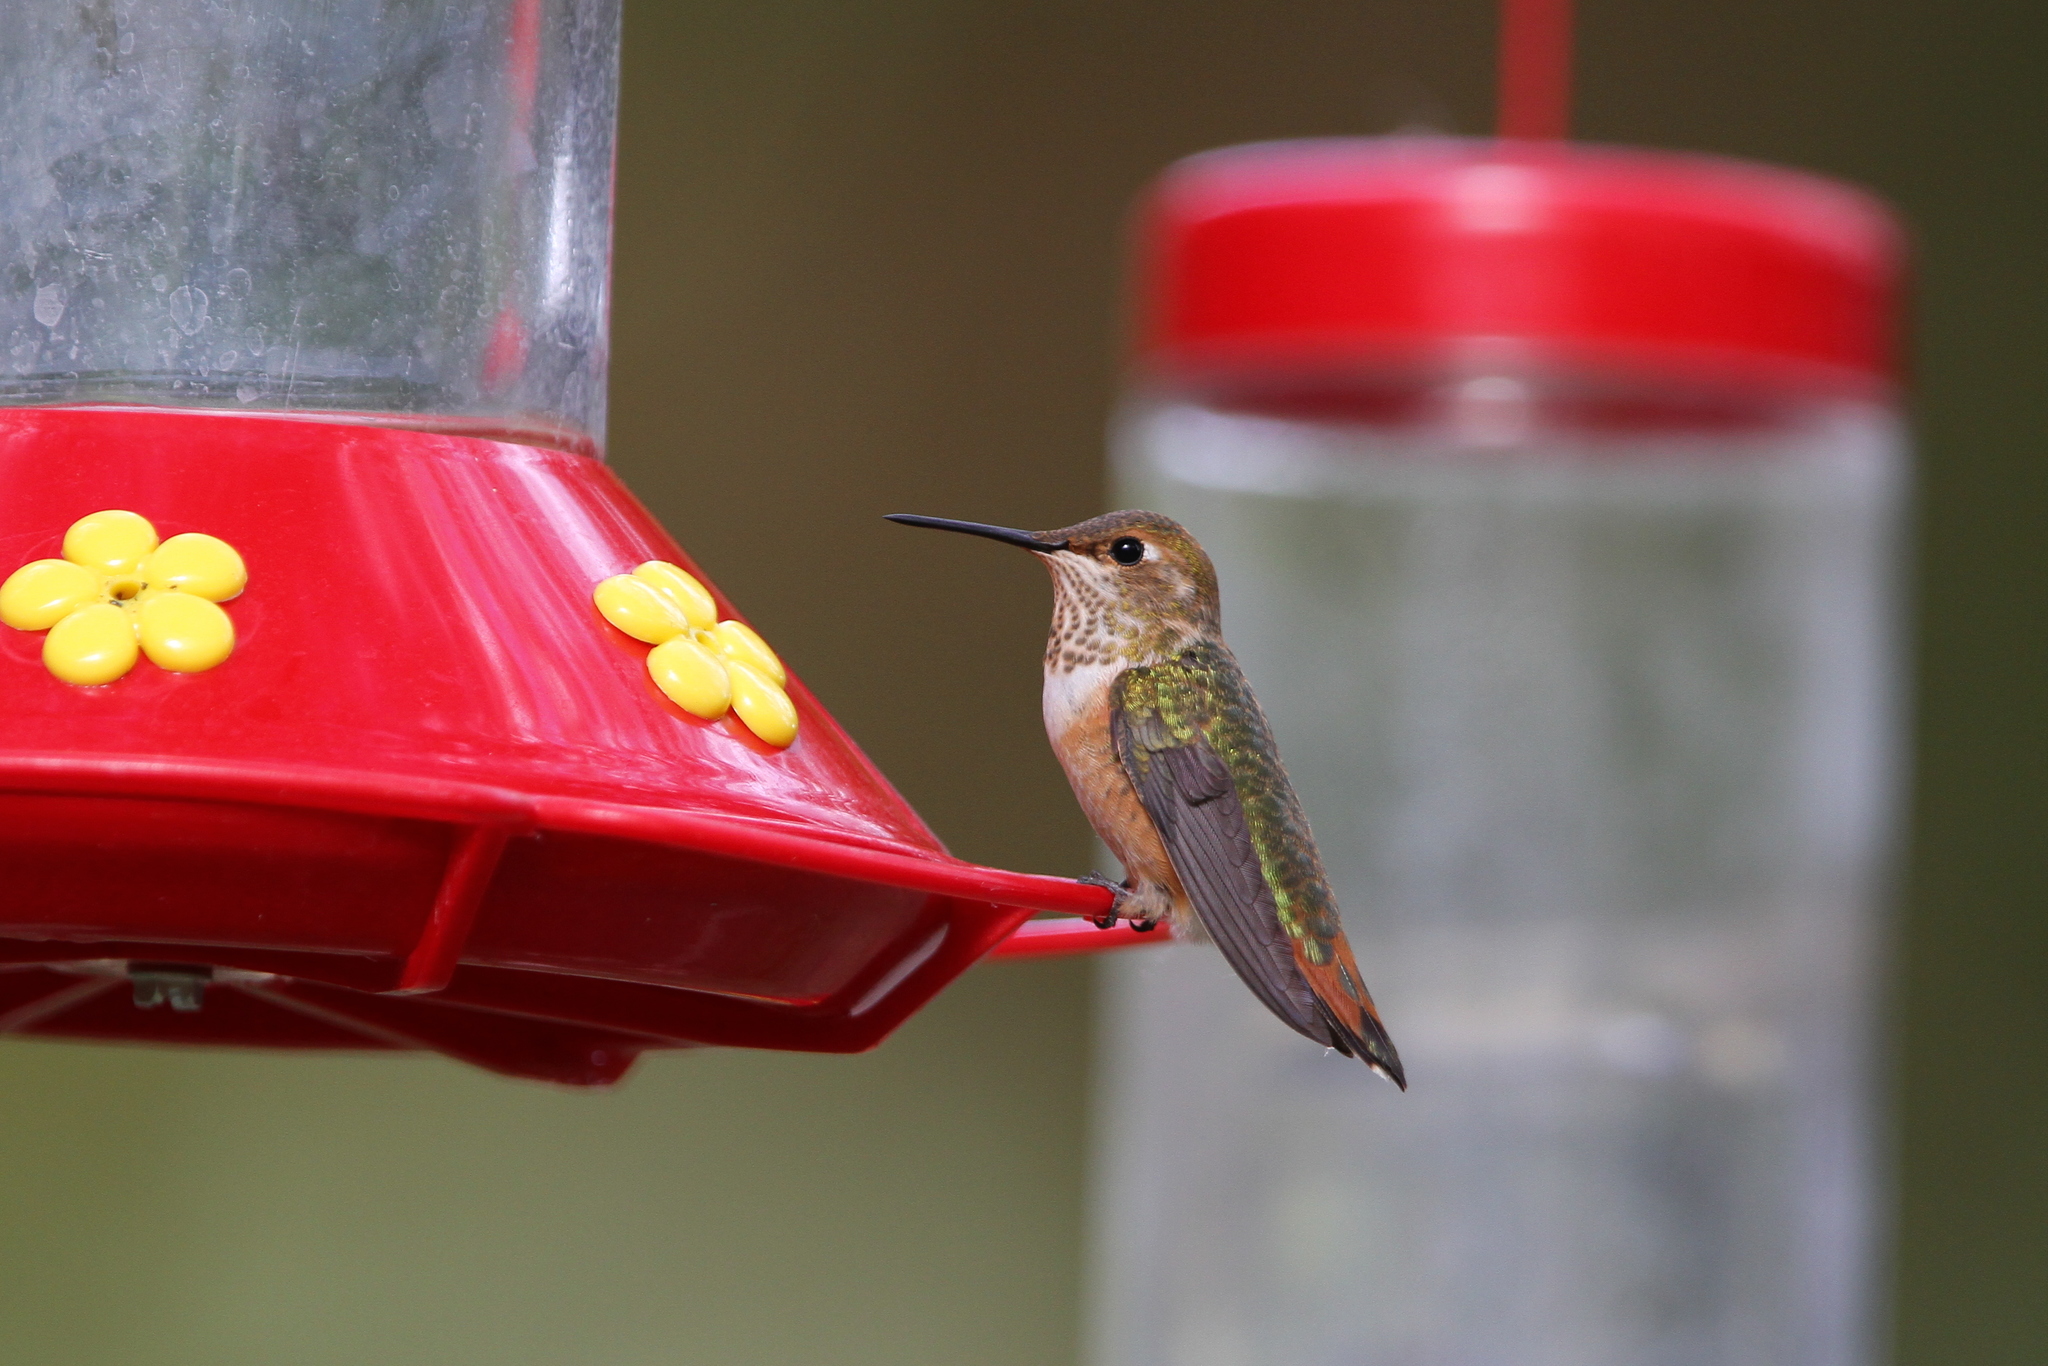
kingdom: Animalia
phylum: Chordata
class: Aves
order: Apodiformes
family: Trochilidae
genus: Selasphorus
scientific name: Selasphorus rufus
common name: Rufous hummingbird
